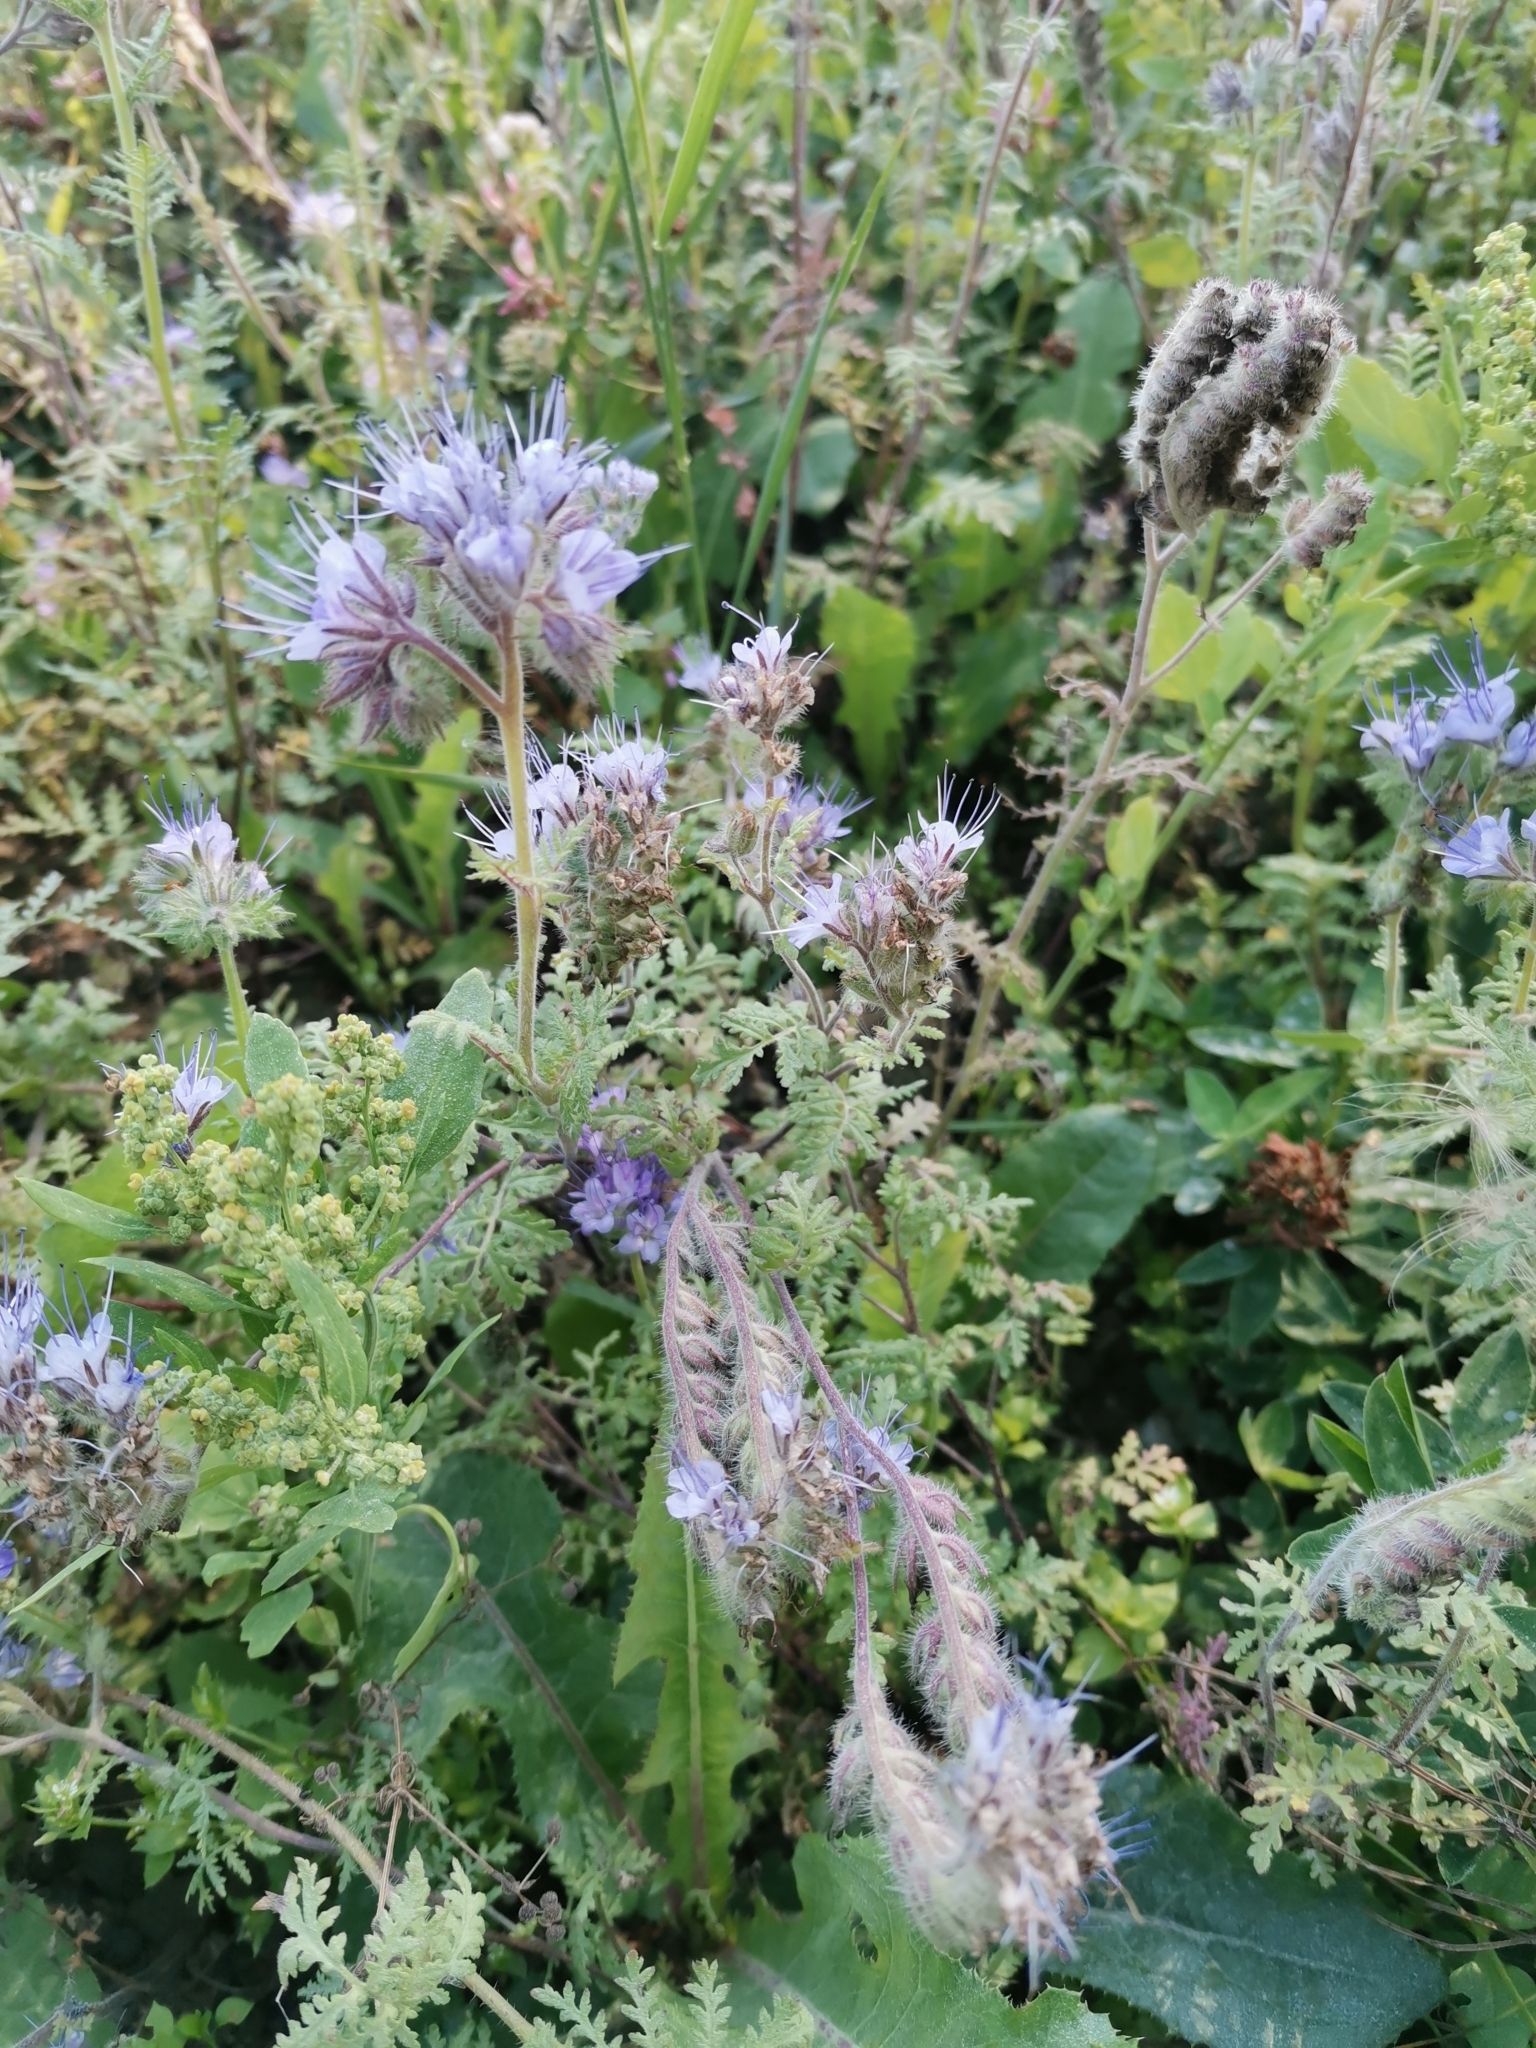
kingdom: Plantae
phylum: Tracheophyta
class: Magnoliopsida
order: Boraginales
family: Hydrophyllaceae
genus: Phacelia
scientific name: Phacelia tanacetifolia
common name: Phacelia
